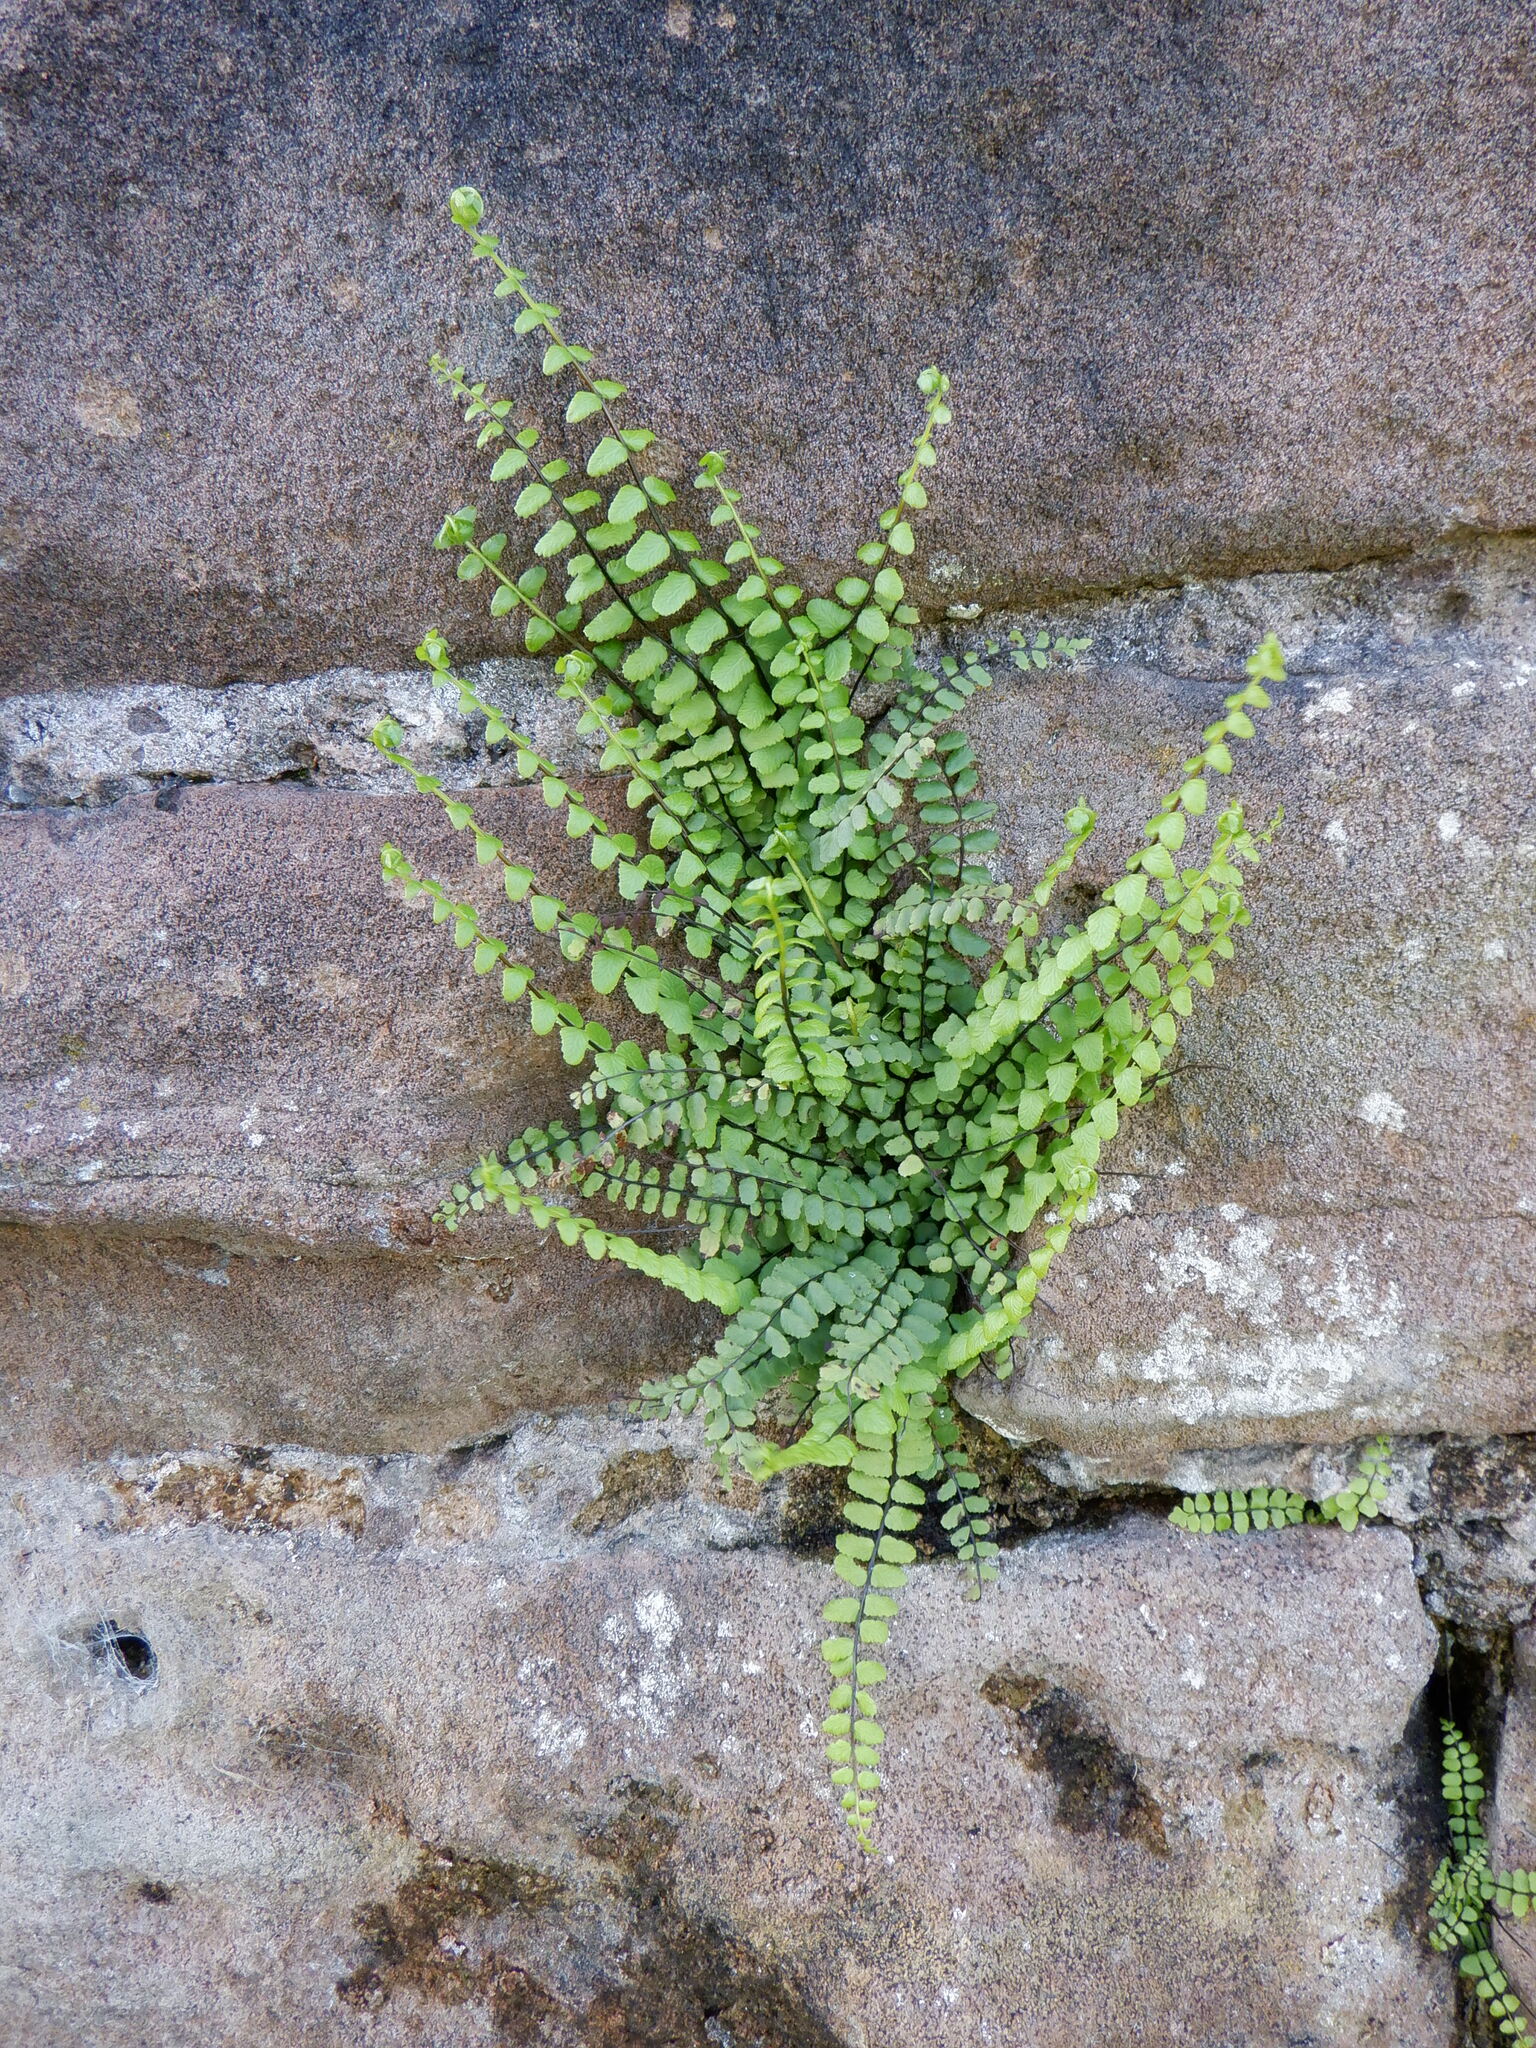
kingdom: Plantae
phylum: Tracheophyta
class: Polypodiopsida
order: Polypodiales
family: Aspleniaceae
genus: Asplenium
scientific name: Asplenium trichomanes
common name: Maidenhair spleenwort
